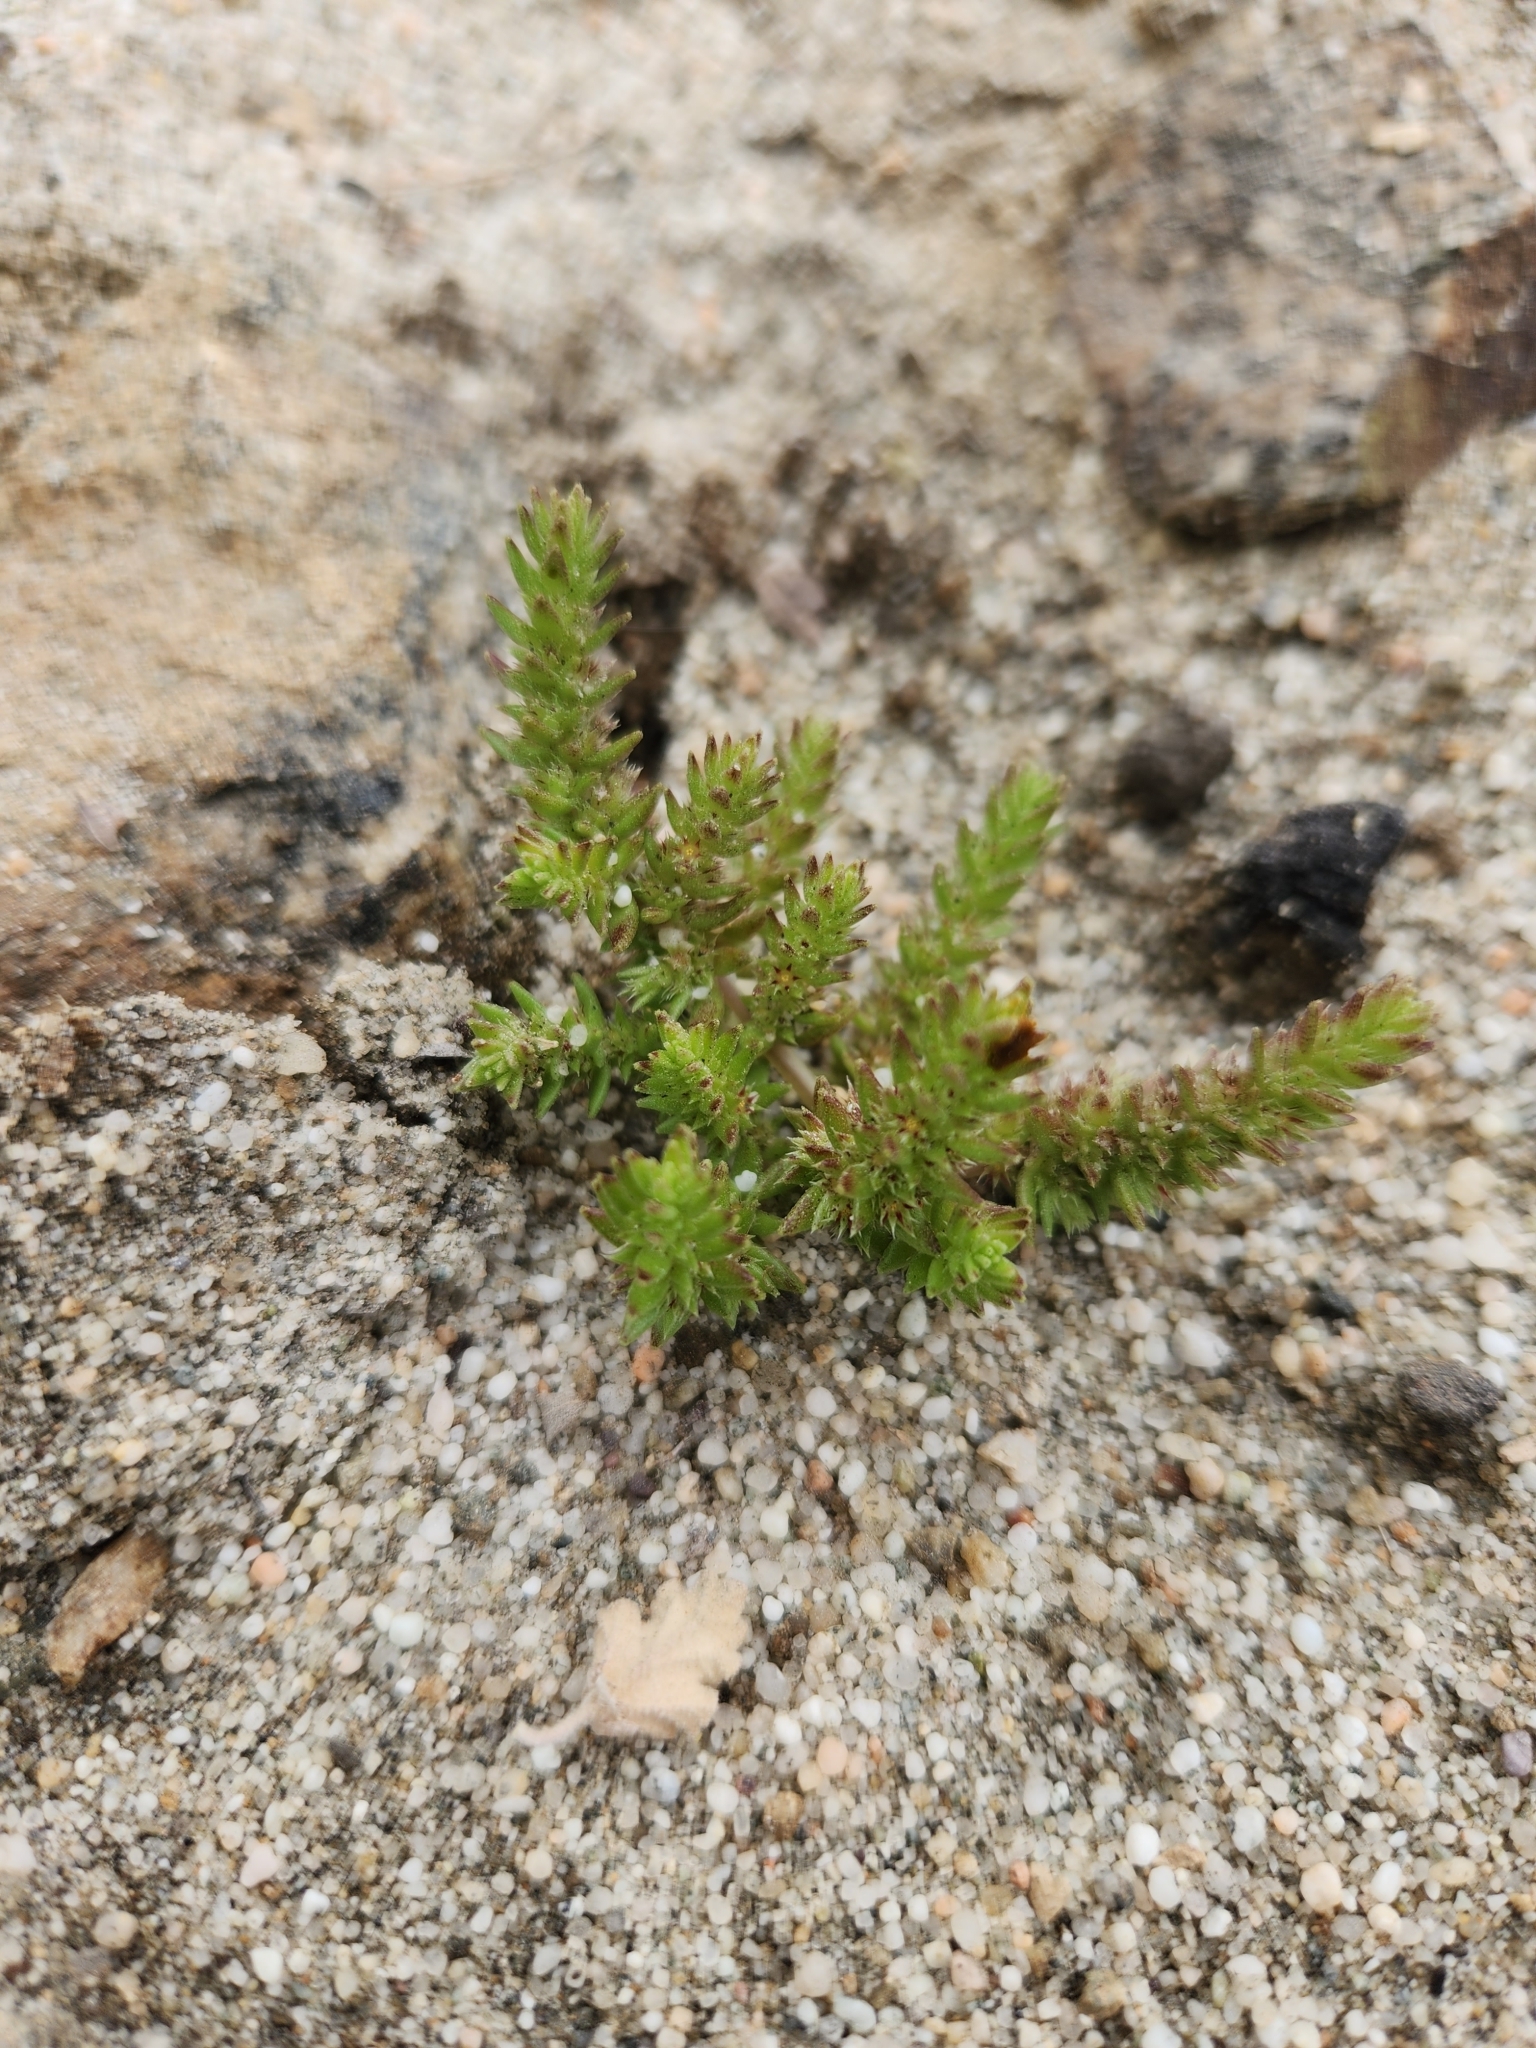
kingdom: Plantae
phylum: Tracheophyta
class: Magnoliopsida
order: Saxifragales
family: Crassulaceae
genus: Crassula
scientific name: Crassula colligata
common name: Pygmyweed
